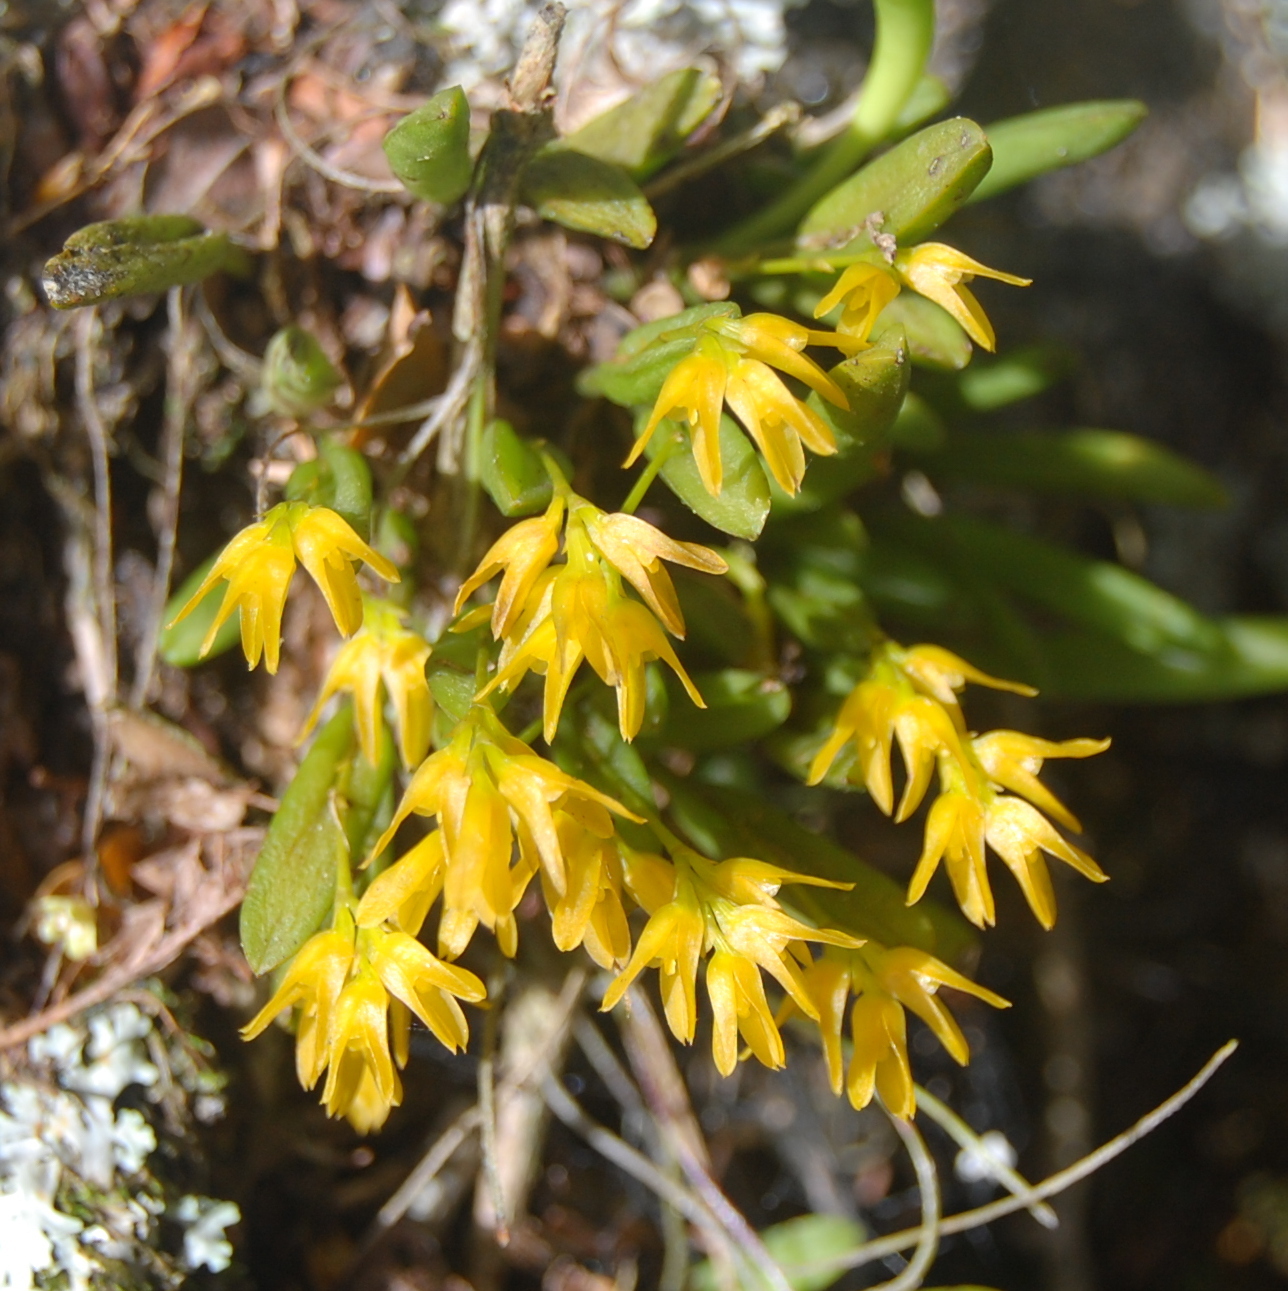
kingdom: Plantae
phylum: Tracheophyta
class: Liliopsida
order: Asparagales
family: Orchidaceae
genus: Acianthera
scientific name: Acianthera sonderiana
